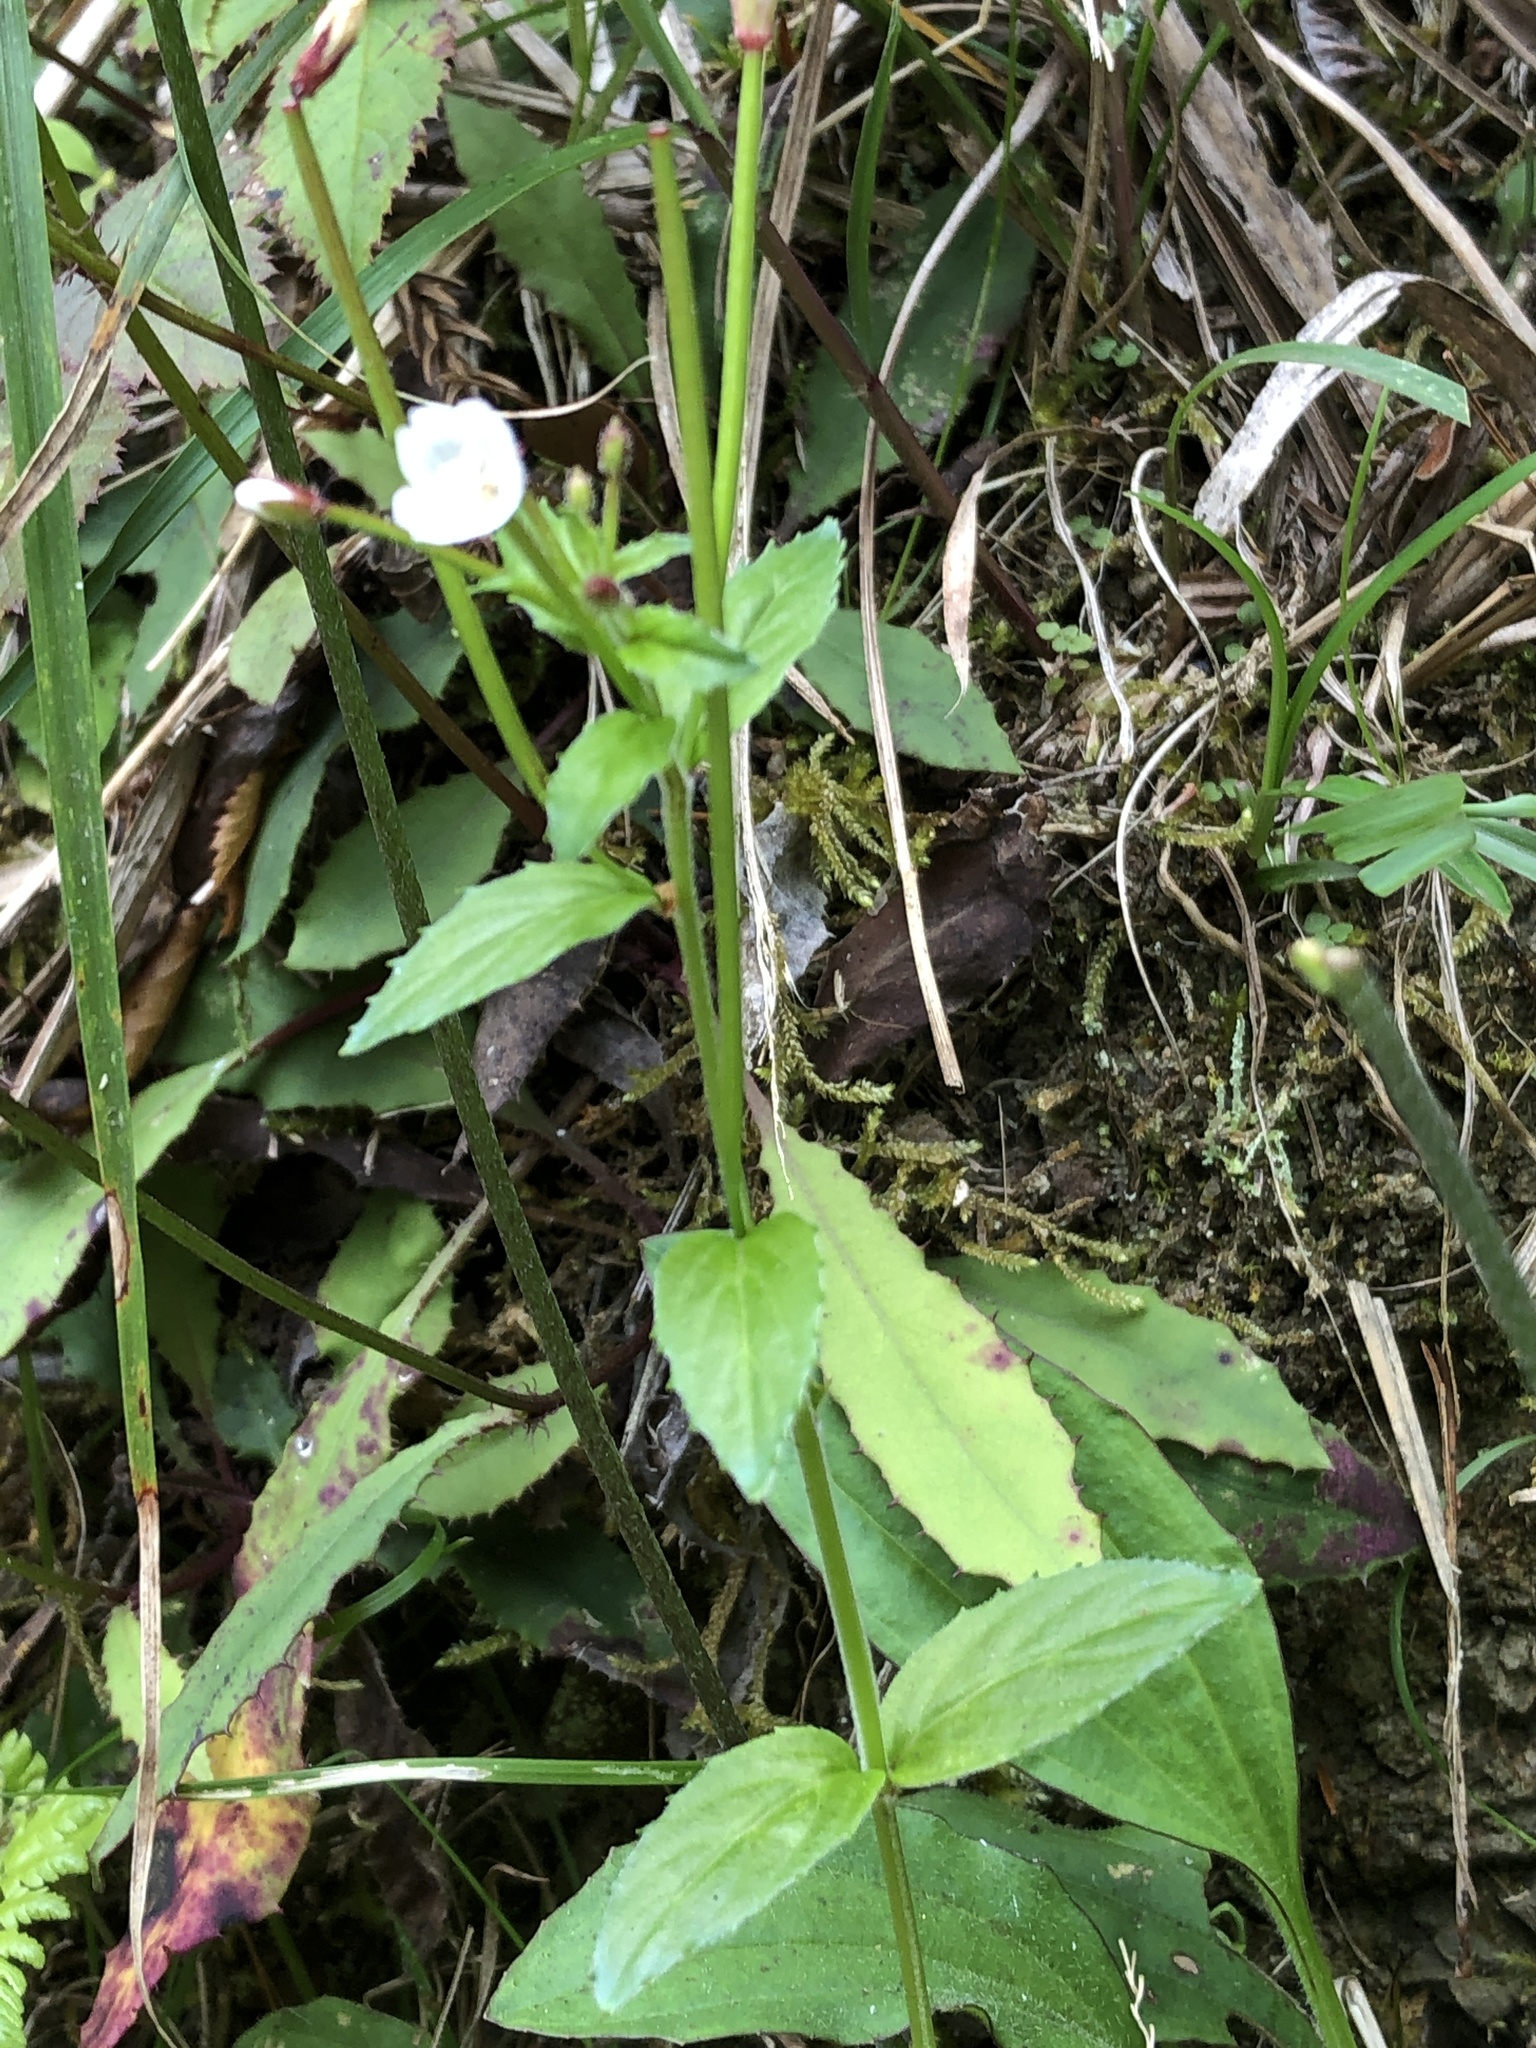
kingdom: Plantae
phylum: Tracheophyta
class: Magnoliopsida
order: Myrtales
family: Onagraceae
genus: Epilobium
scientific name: Epilobium amurense
